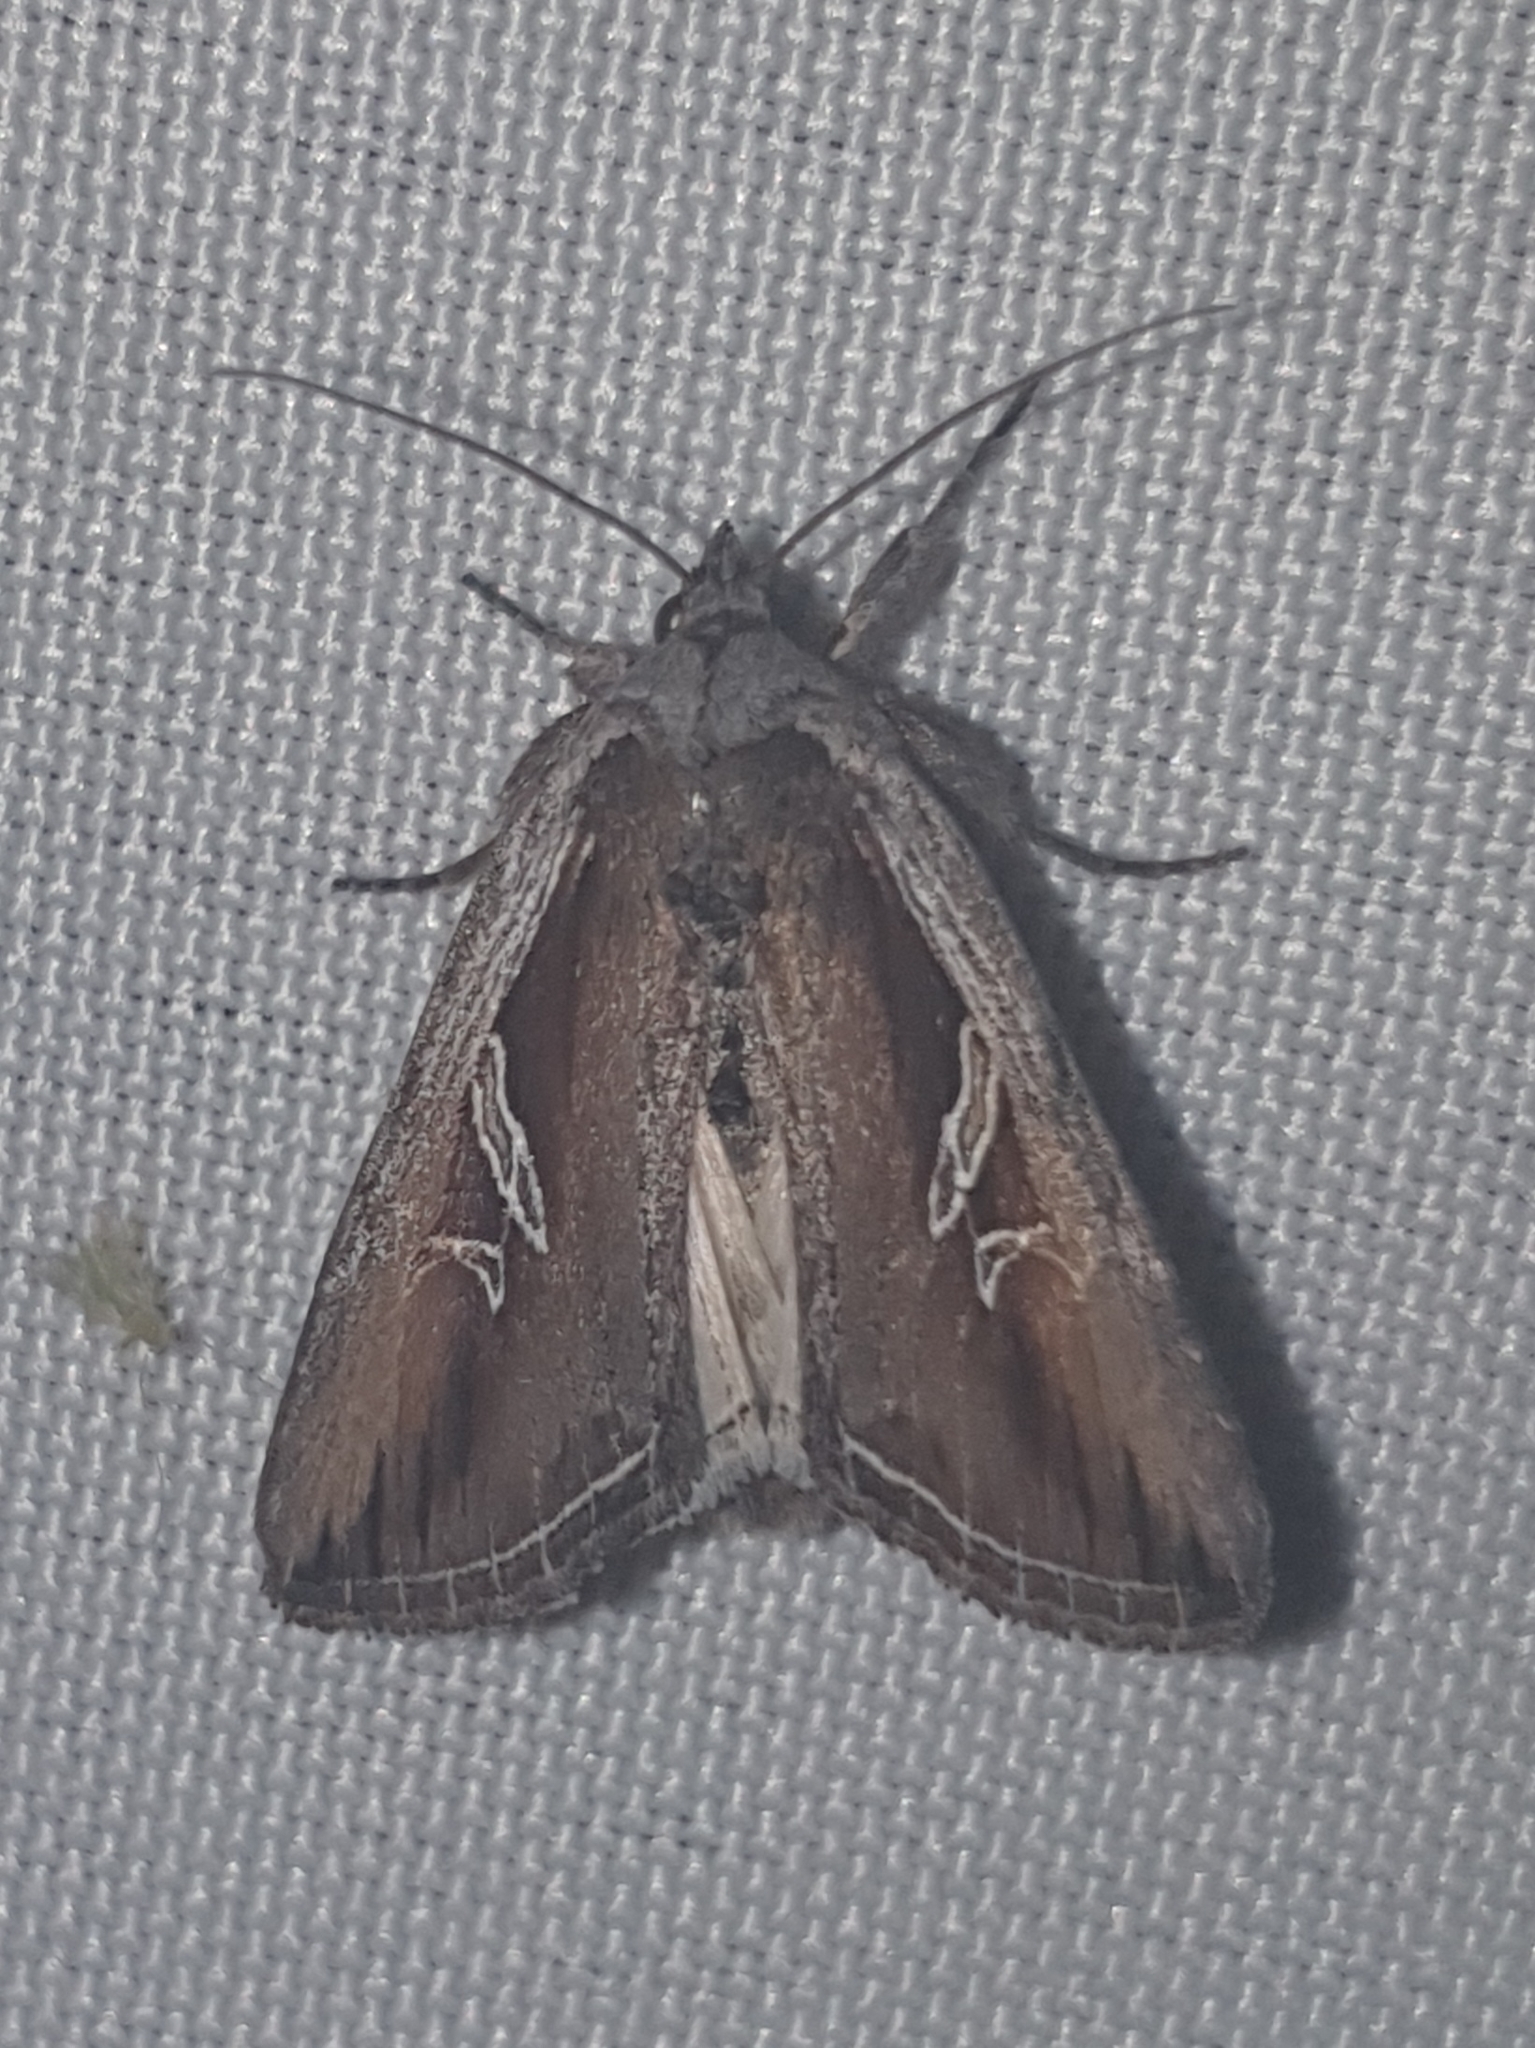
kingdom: Animalia
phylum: Arthropoda
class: Insecta
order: Lepidoptera
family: Noctuidae
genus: Lophoterges
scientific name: Lophoterges millierei
